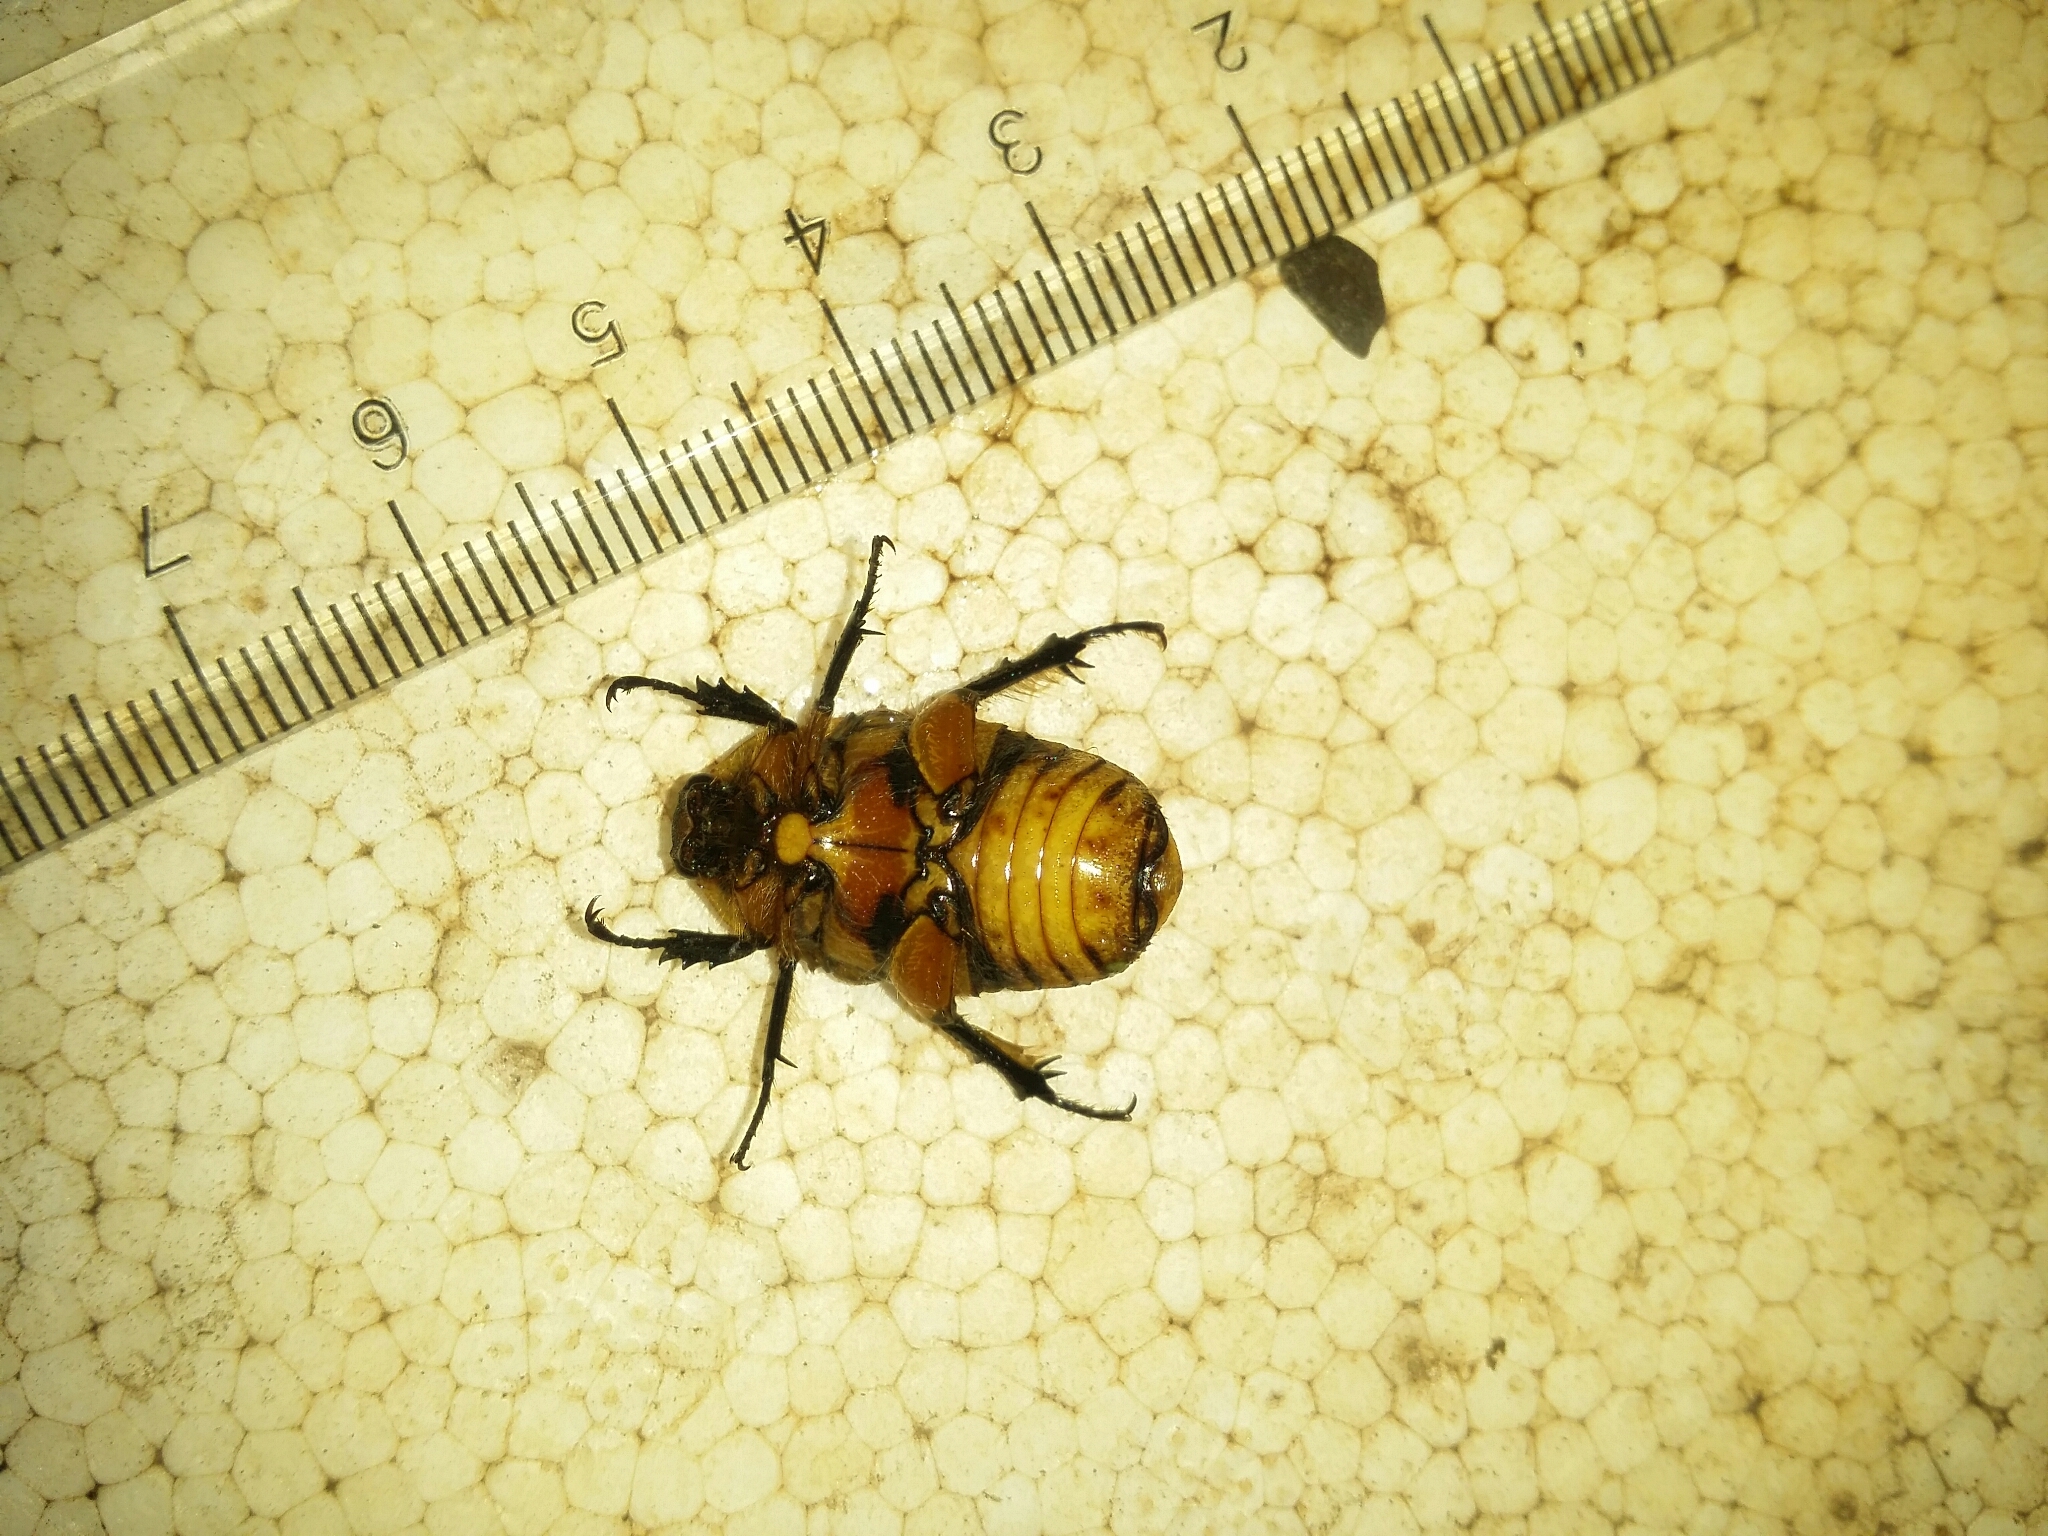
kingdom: Animalia
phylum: Arthropoda
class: Insecta
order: Coleoptera
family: Scarabaeidae
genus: Aphanesthes
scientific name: Aphanesthes succinea
